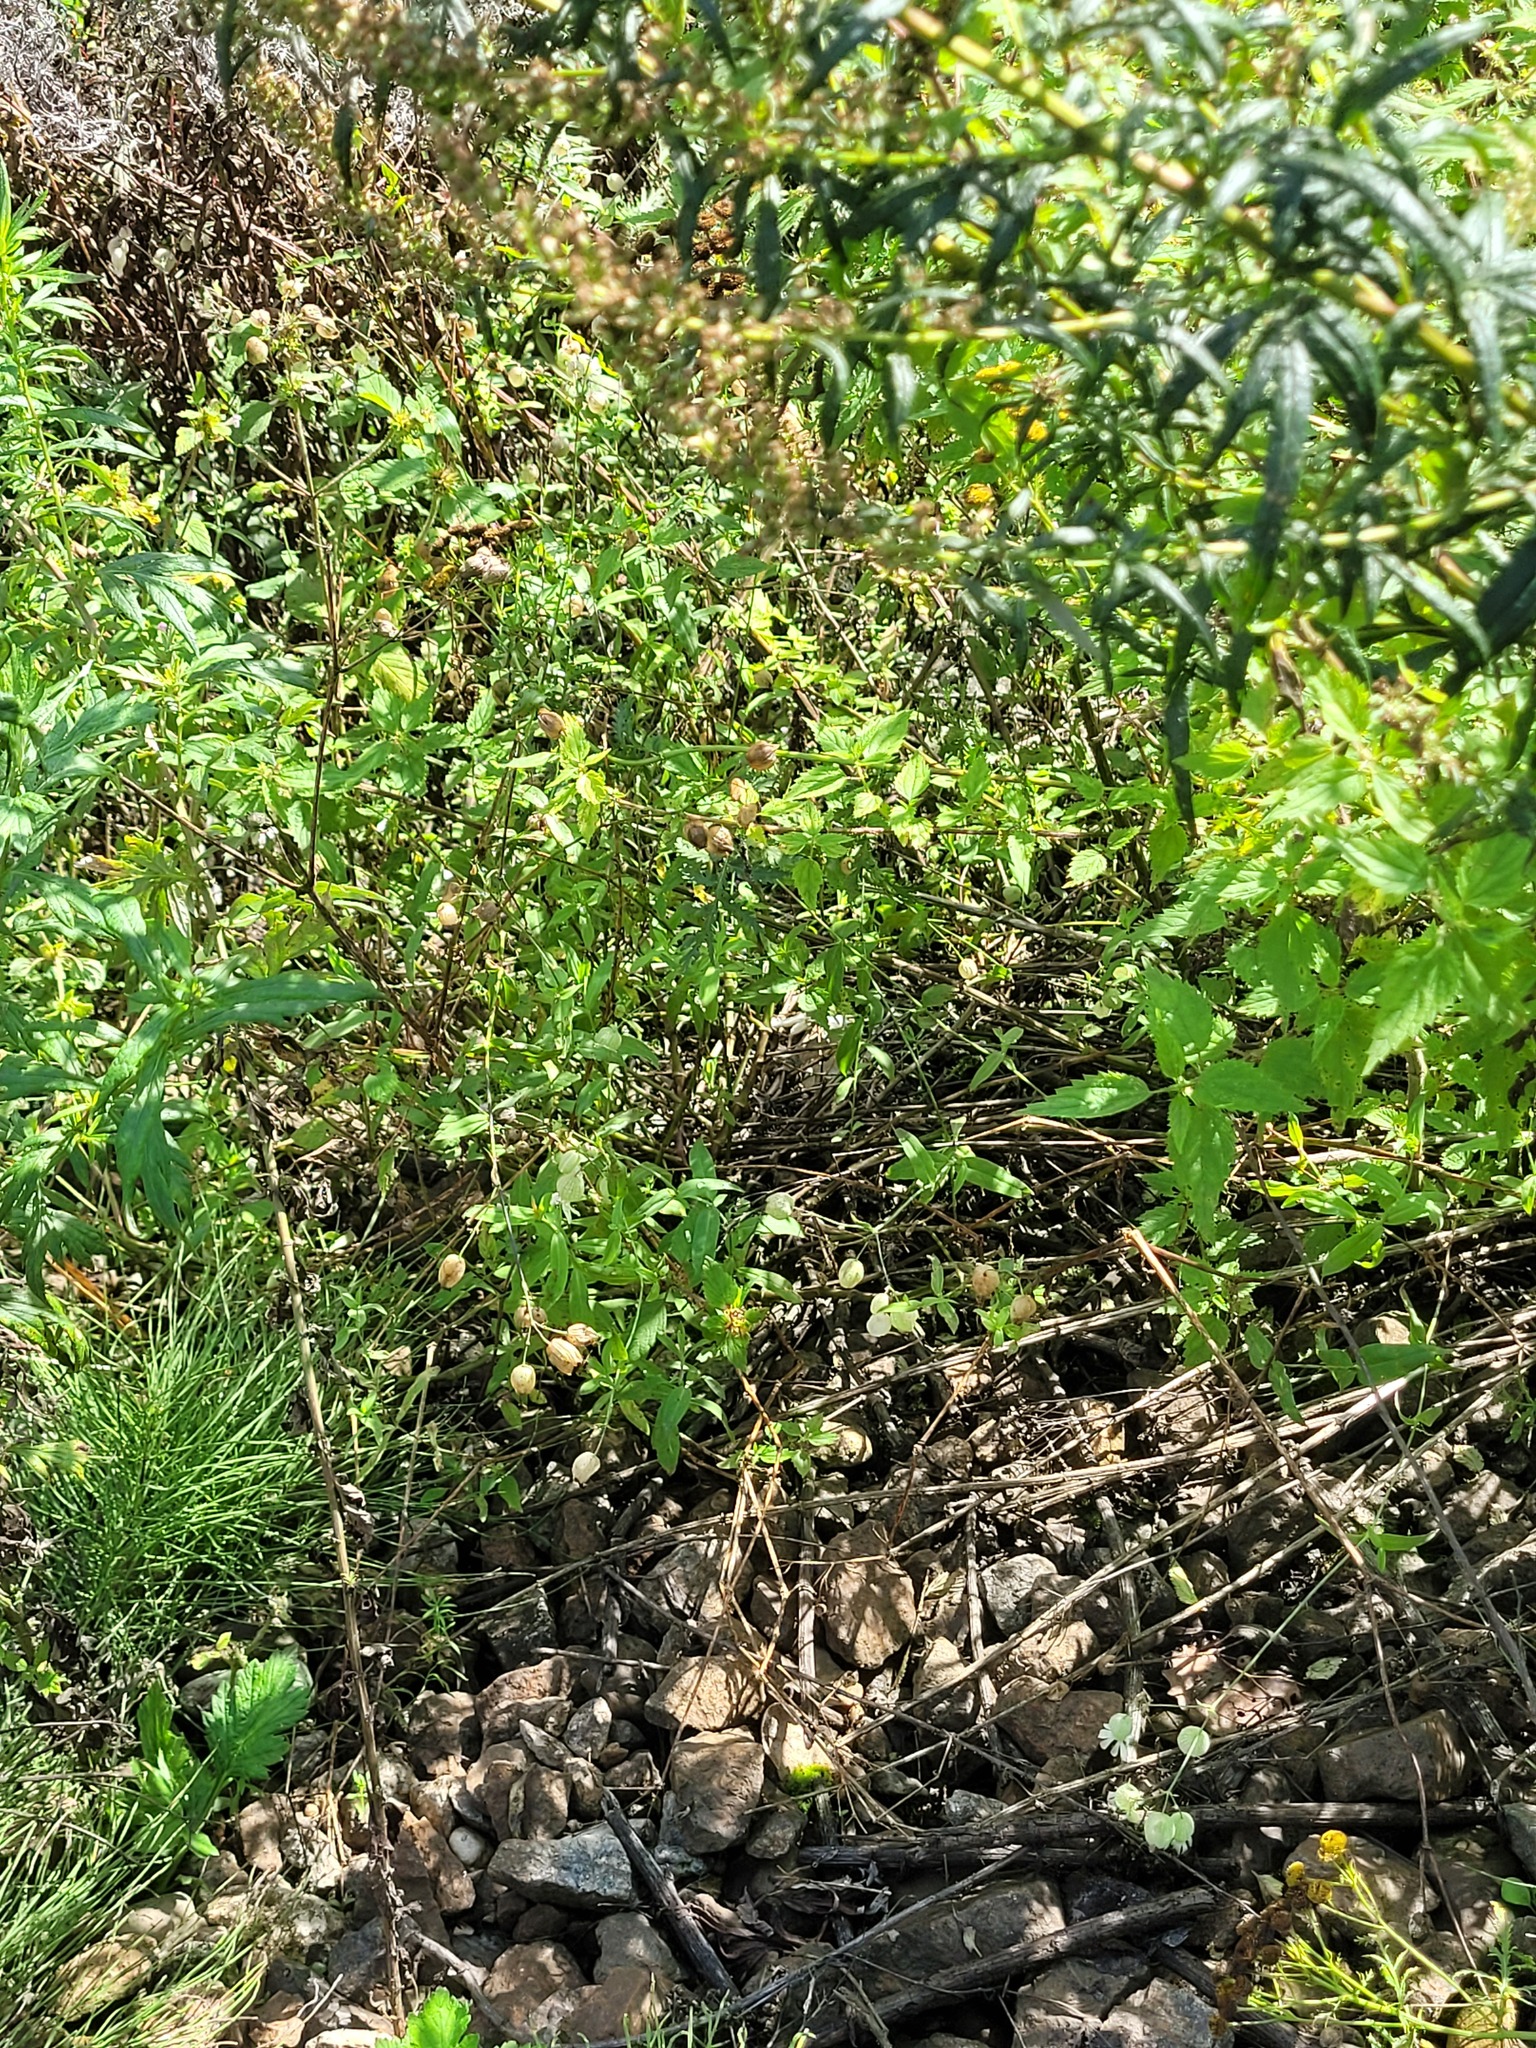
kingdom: Plantae
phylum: Tracheophyta
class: Magnoliopsida
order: Caryophyllales
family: Caryophyllaceae
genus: Silene
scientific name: Silene vulgaris
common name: Bladder campion
